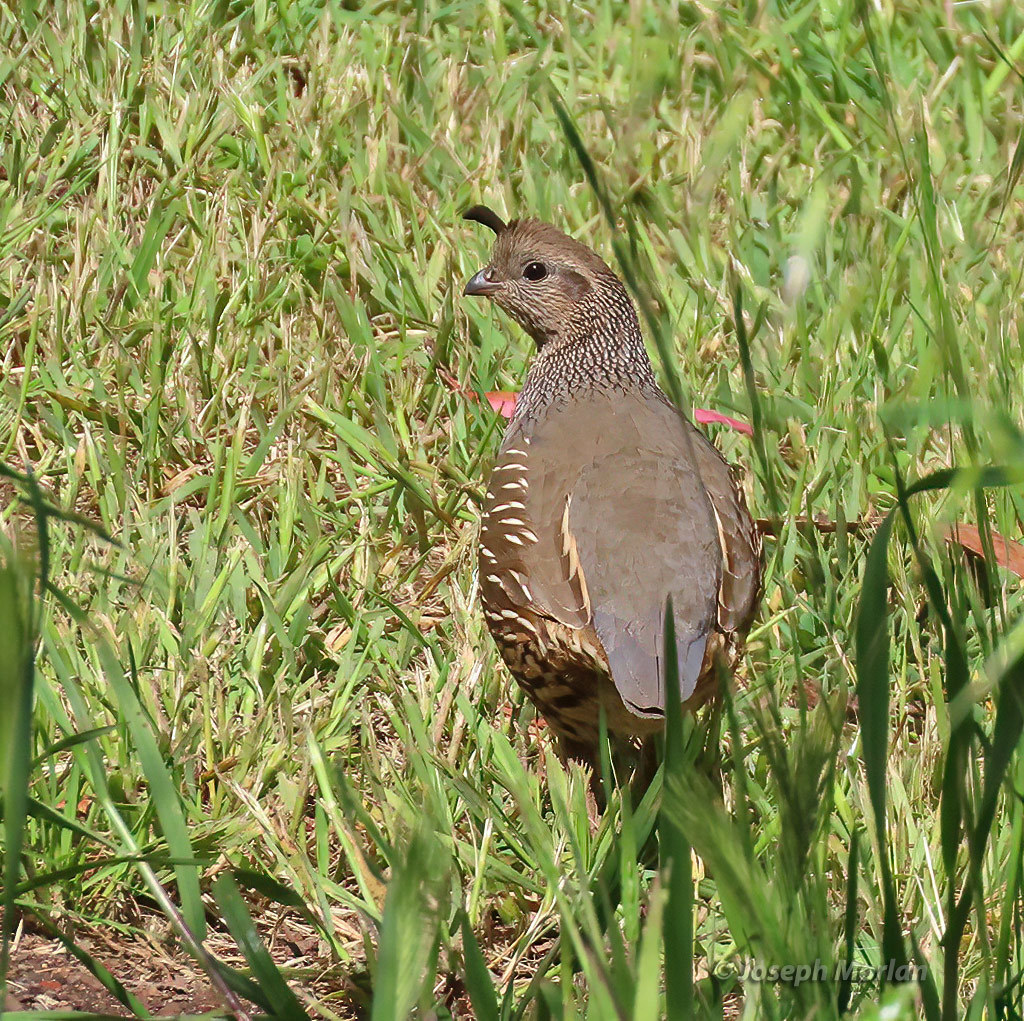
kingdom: Animalia
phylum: Chordata
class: Aves
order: Galliformes
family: Odontophoridae
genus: Callipepla
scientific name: Callipepla californica
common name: California quail
